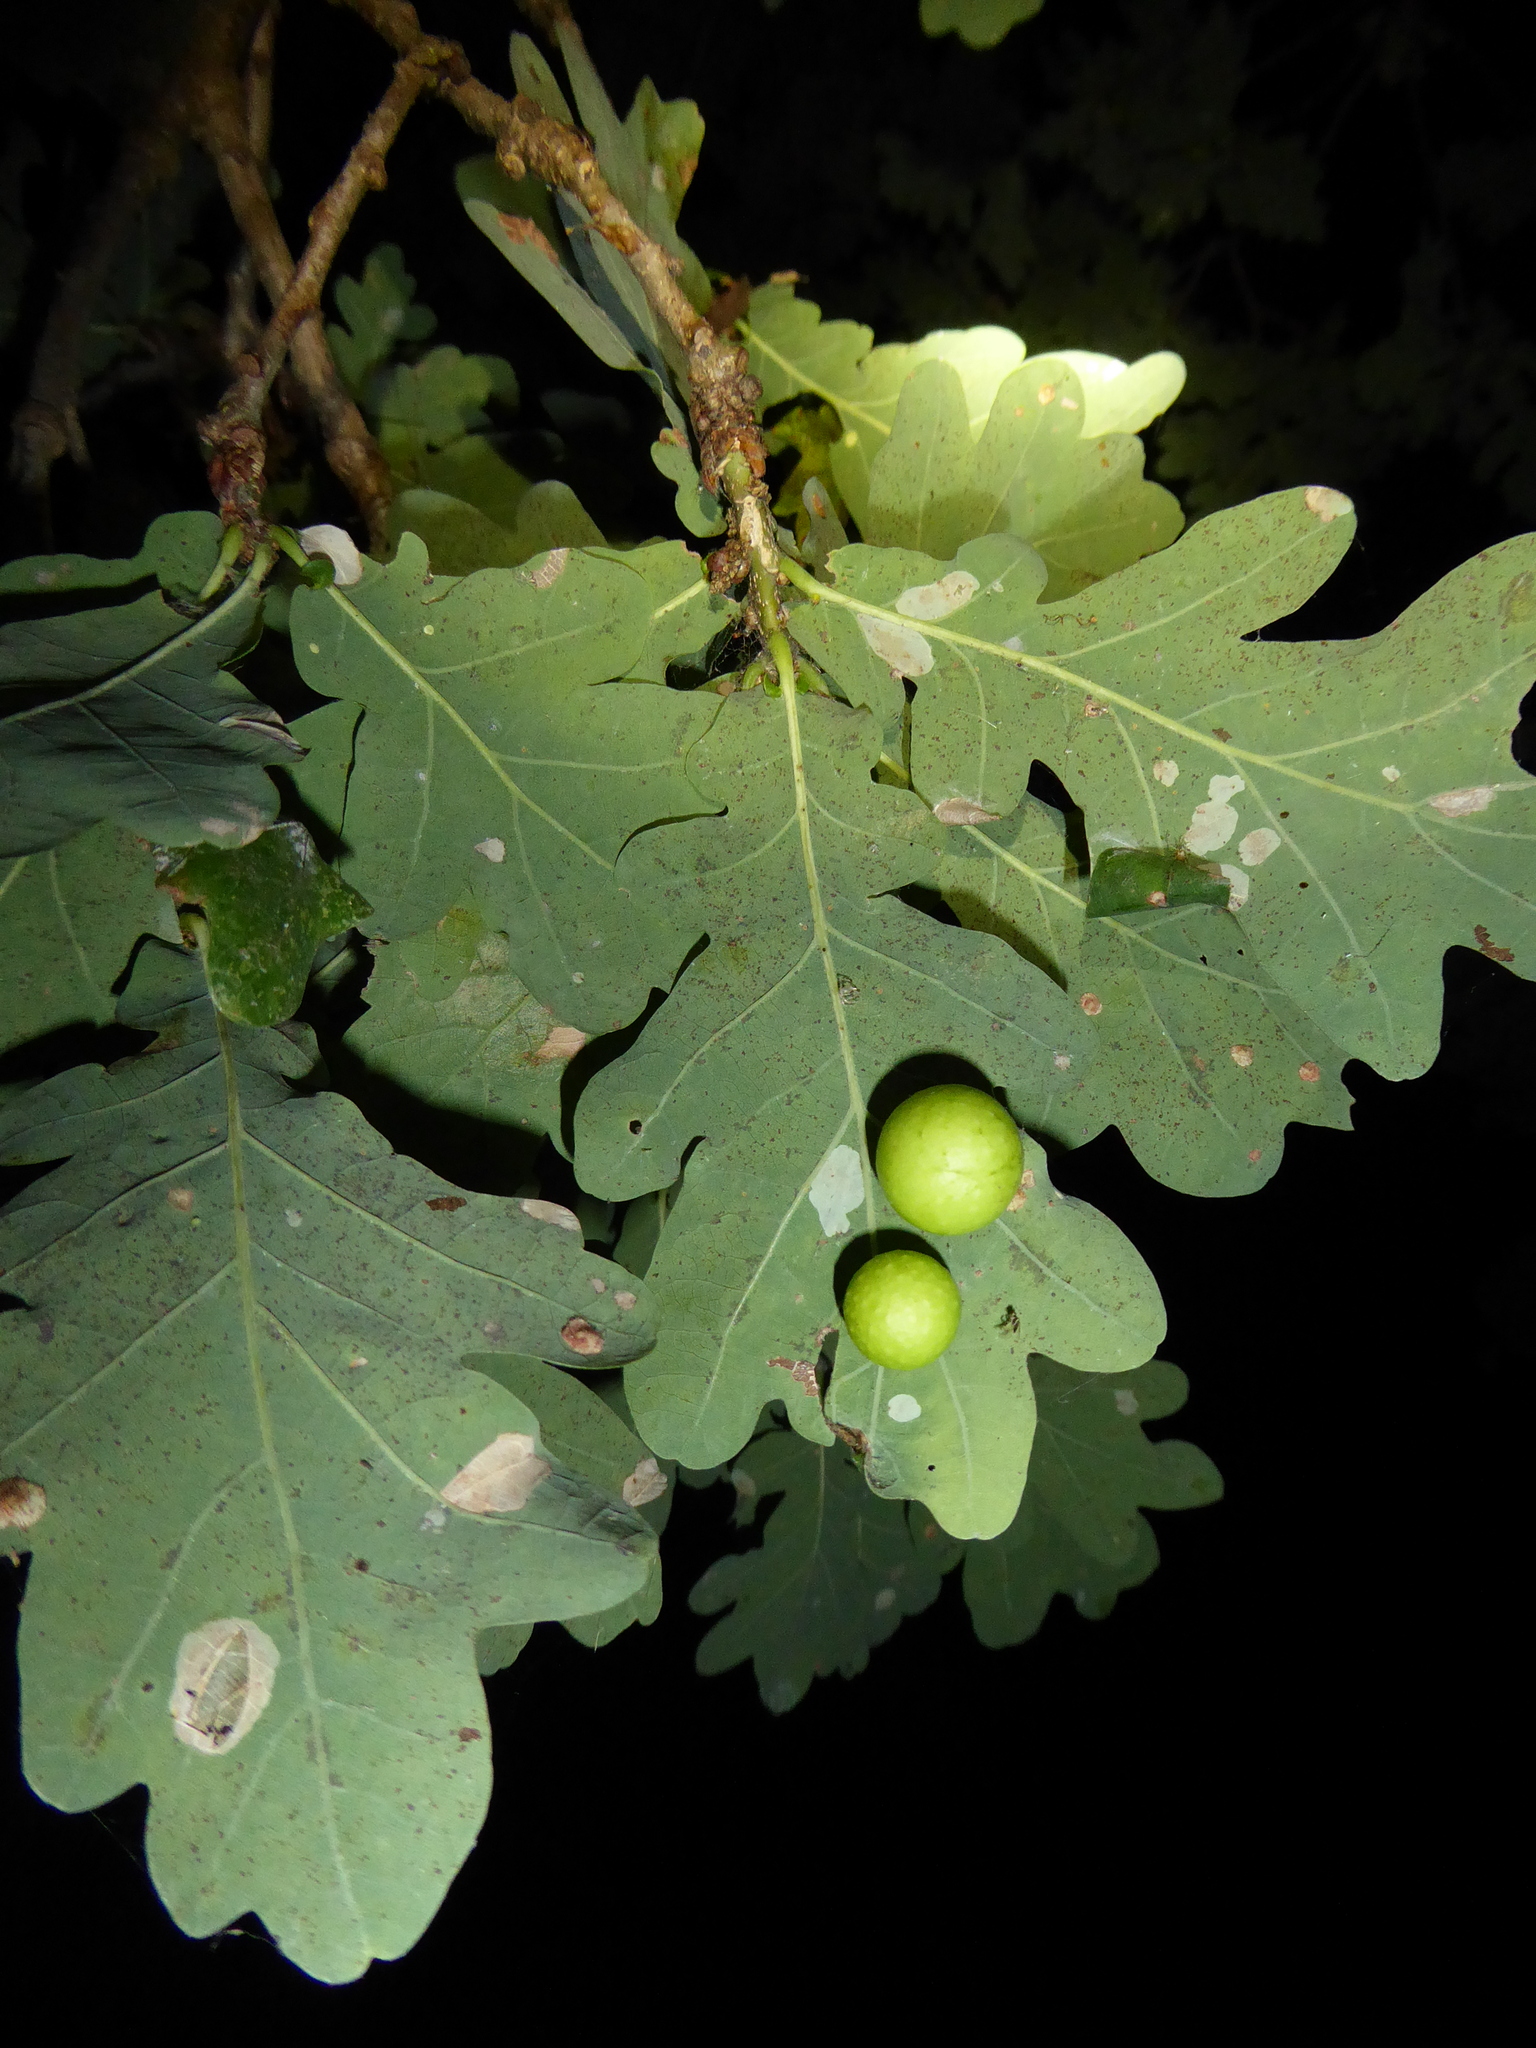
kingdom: Animalia
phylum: Arthropoda
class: Insecta
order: Hymenoptera
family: Cynipidae
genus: Cynips
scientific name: Cynips quercusfolii
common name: Cherry gall
